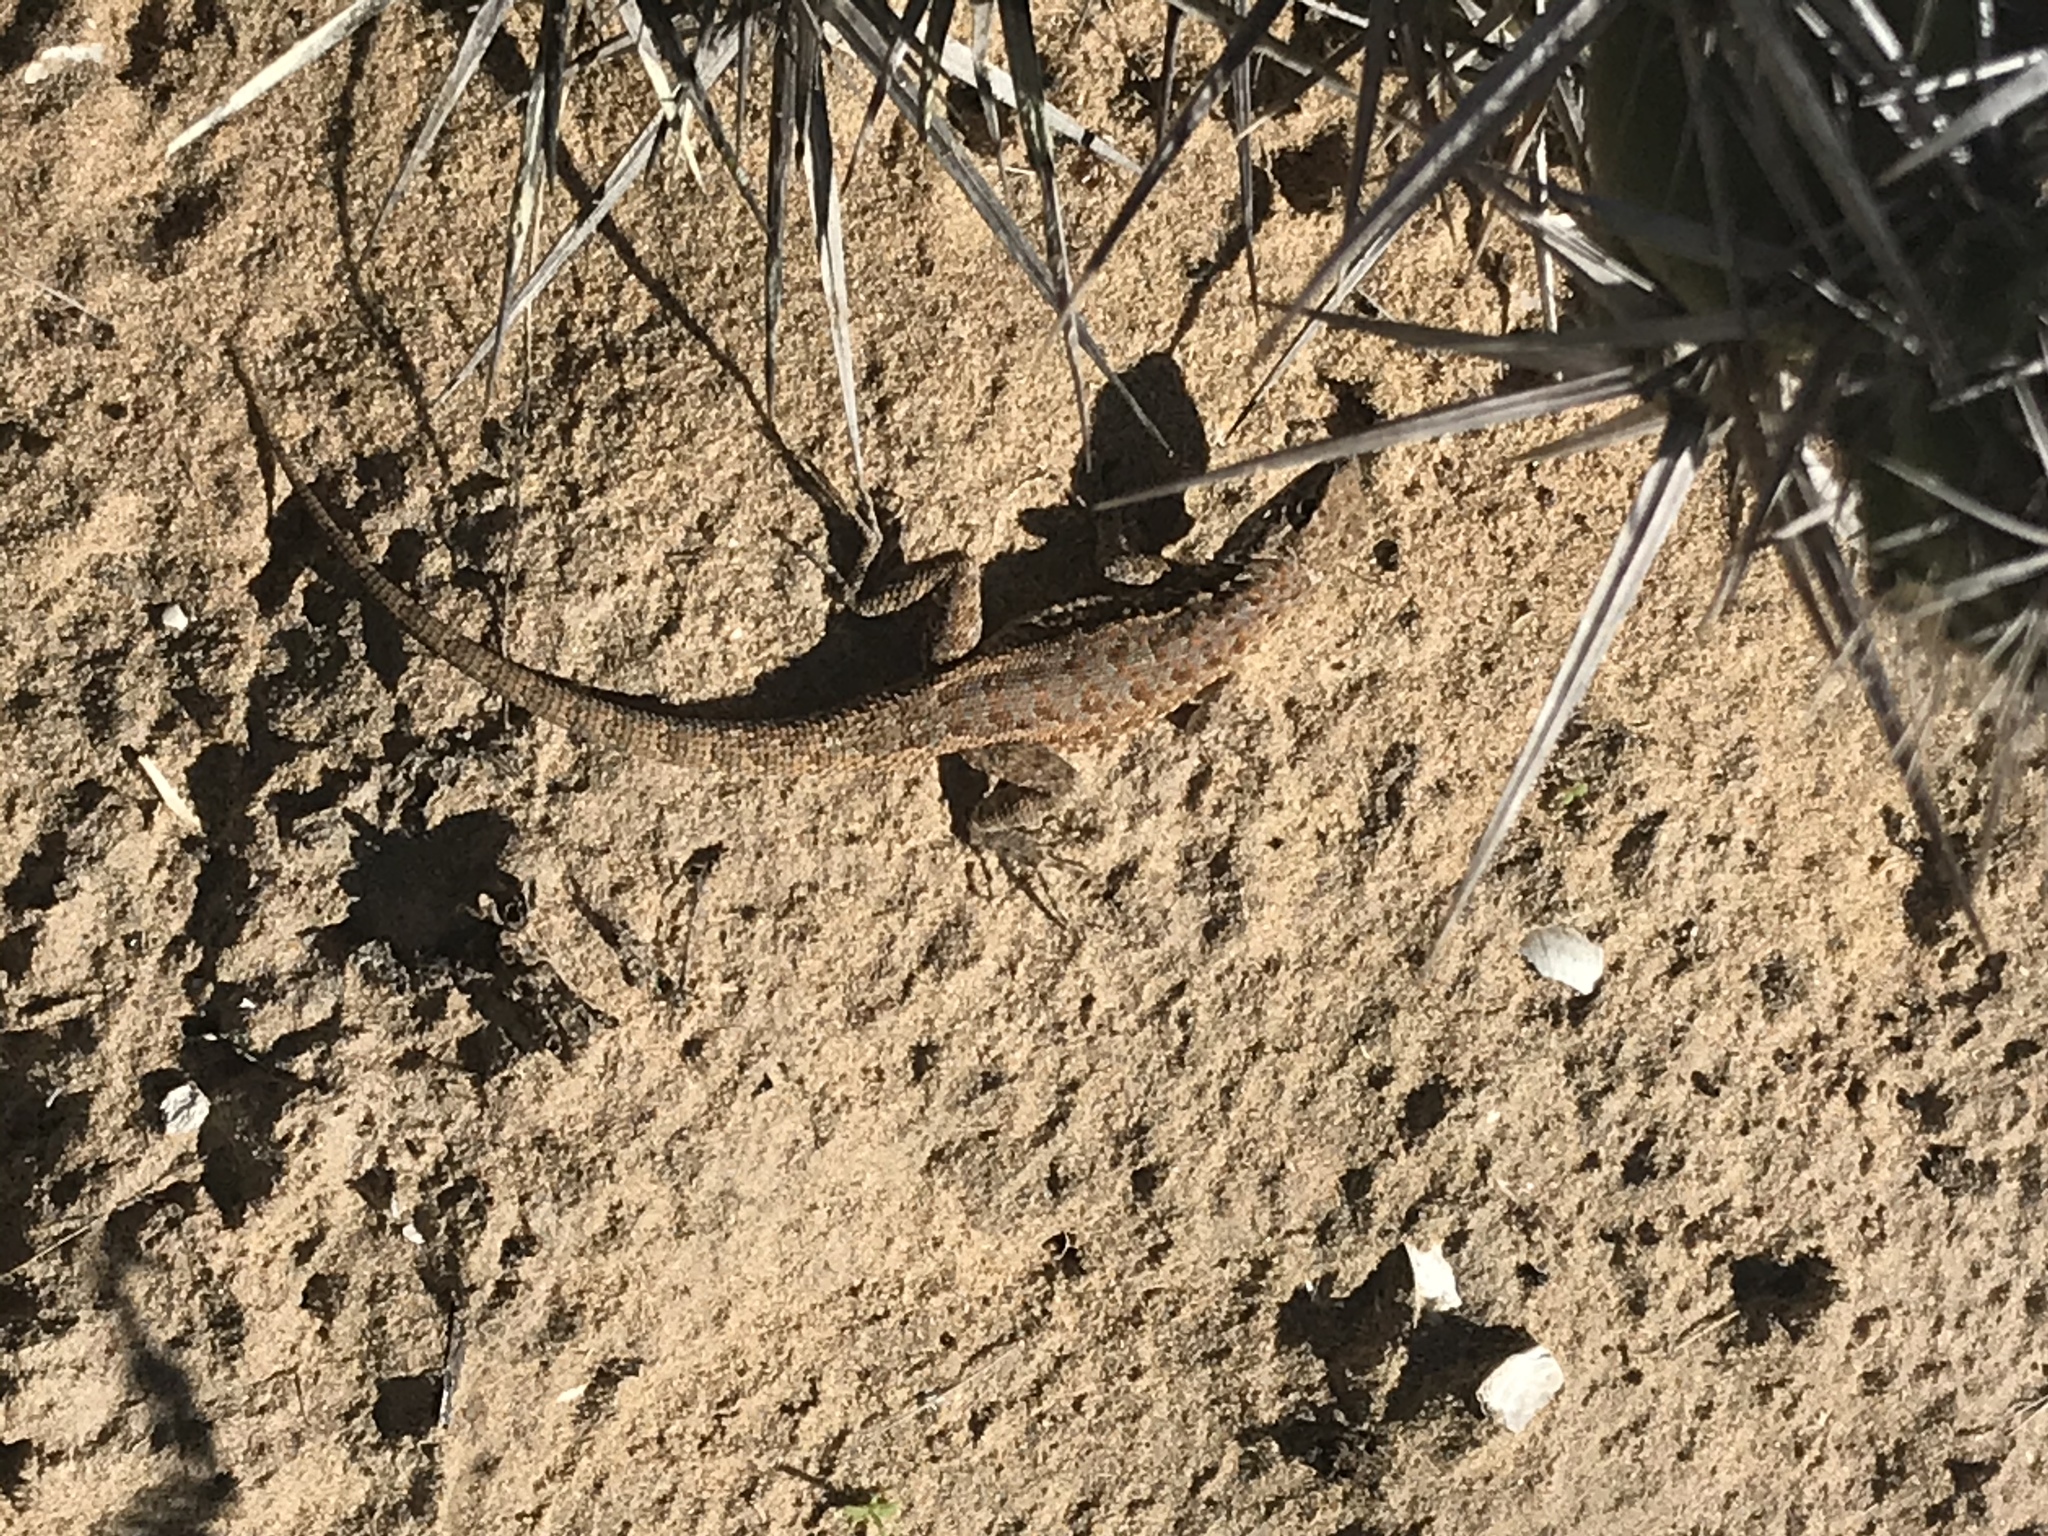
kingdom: Animalia
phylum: Chordata
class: Squamata
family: Phrynosomatidae
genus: Uta
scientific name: Uta stansburiana
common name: Side-blotched lizard
